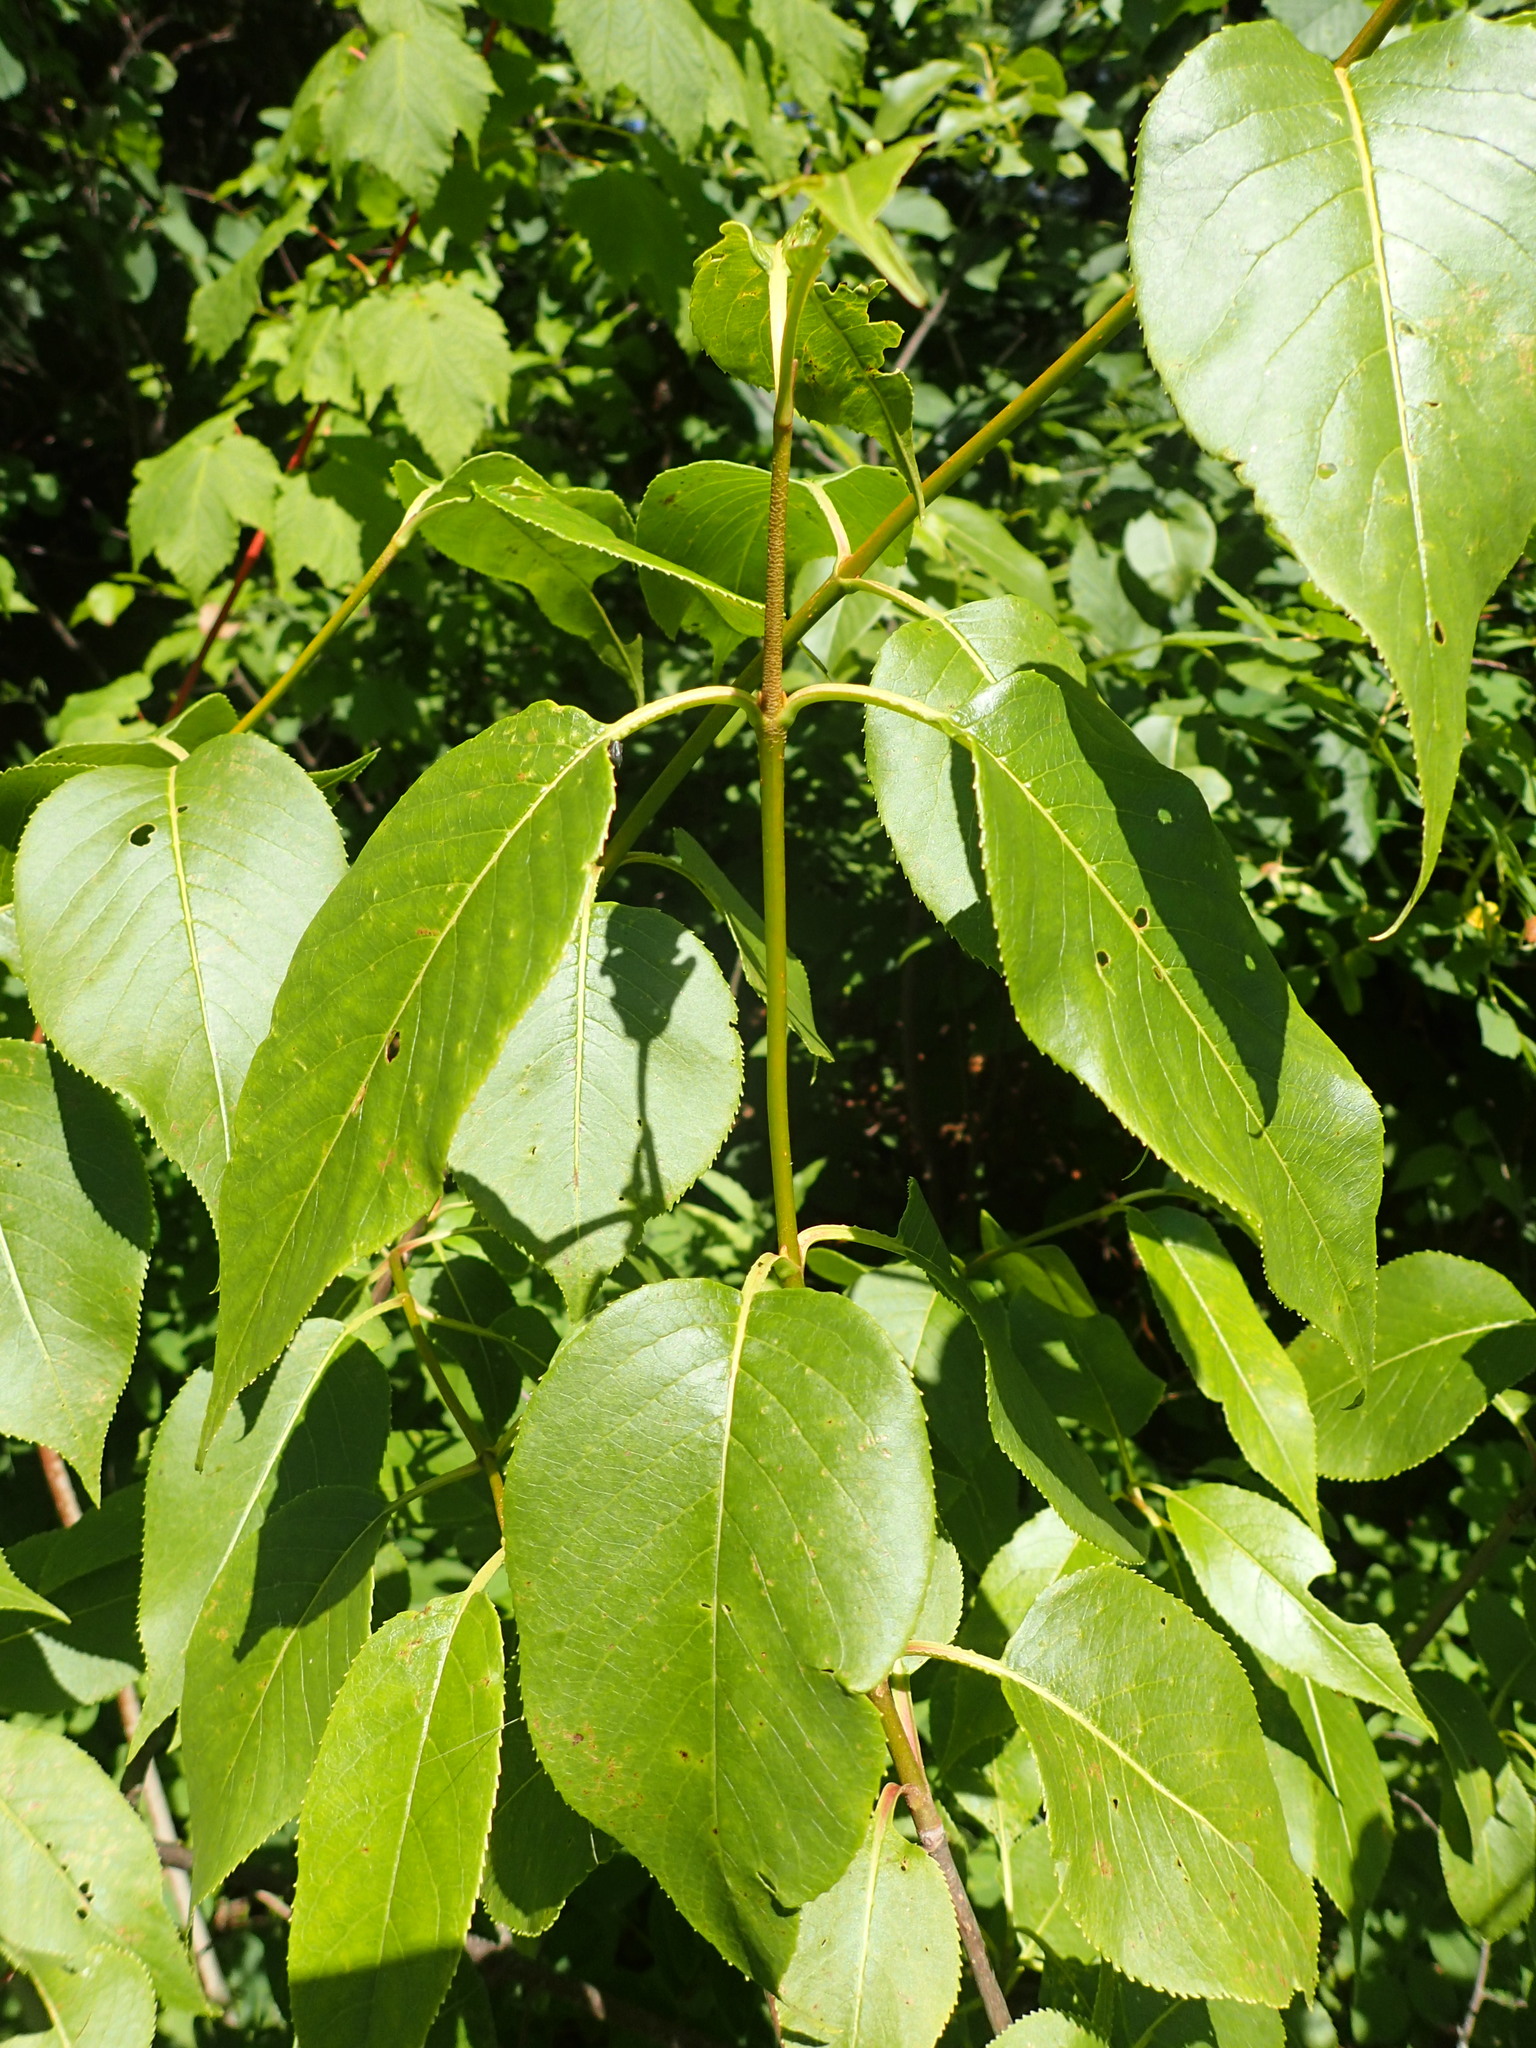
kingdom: Plantae
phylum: Tracheophyta
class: Magnoliopsida
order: Dipsacales
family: Viburnaceae
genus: Viburnum
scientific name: Viburnum lentago
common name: Black haw
